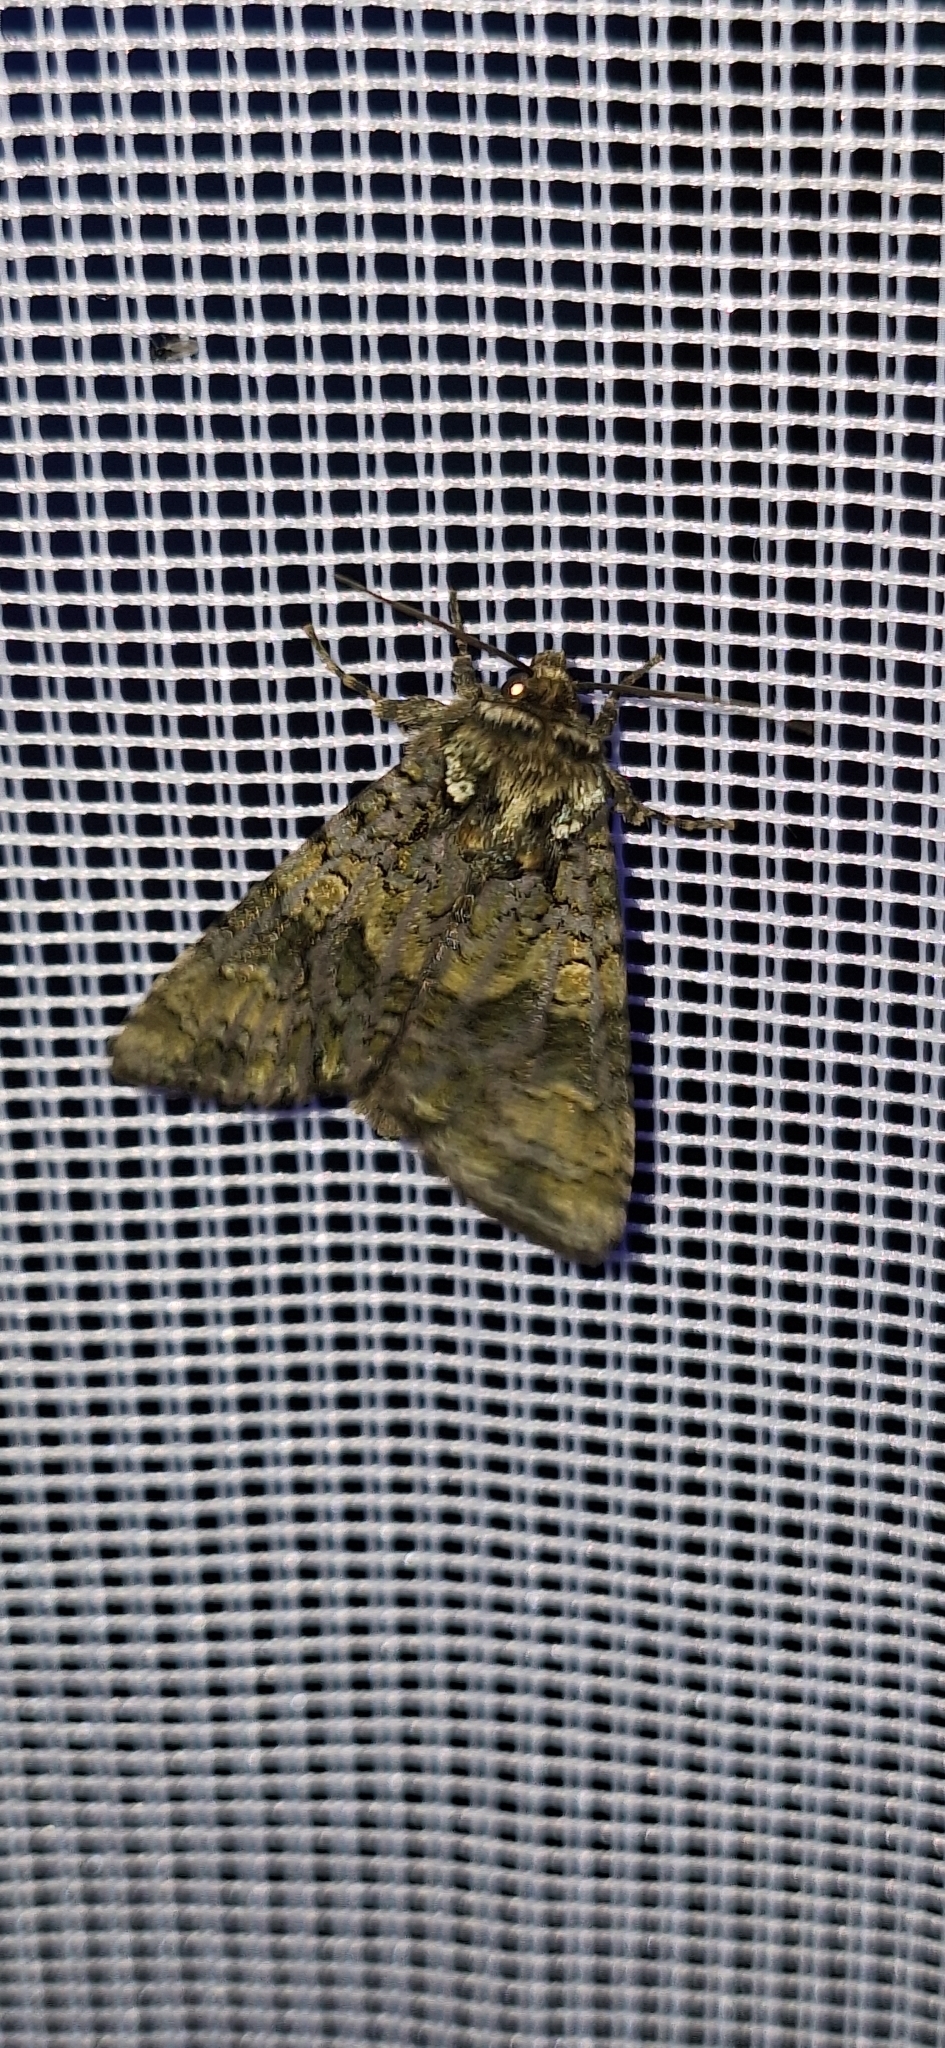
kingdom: Animalia
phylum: Arthropoda
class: Insecta
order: Lepidoptera
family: Noctuidae
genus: Craniophora
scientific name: Craniophora ligustri
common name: Coronet
